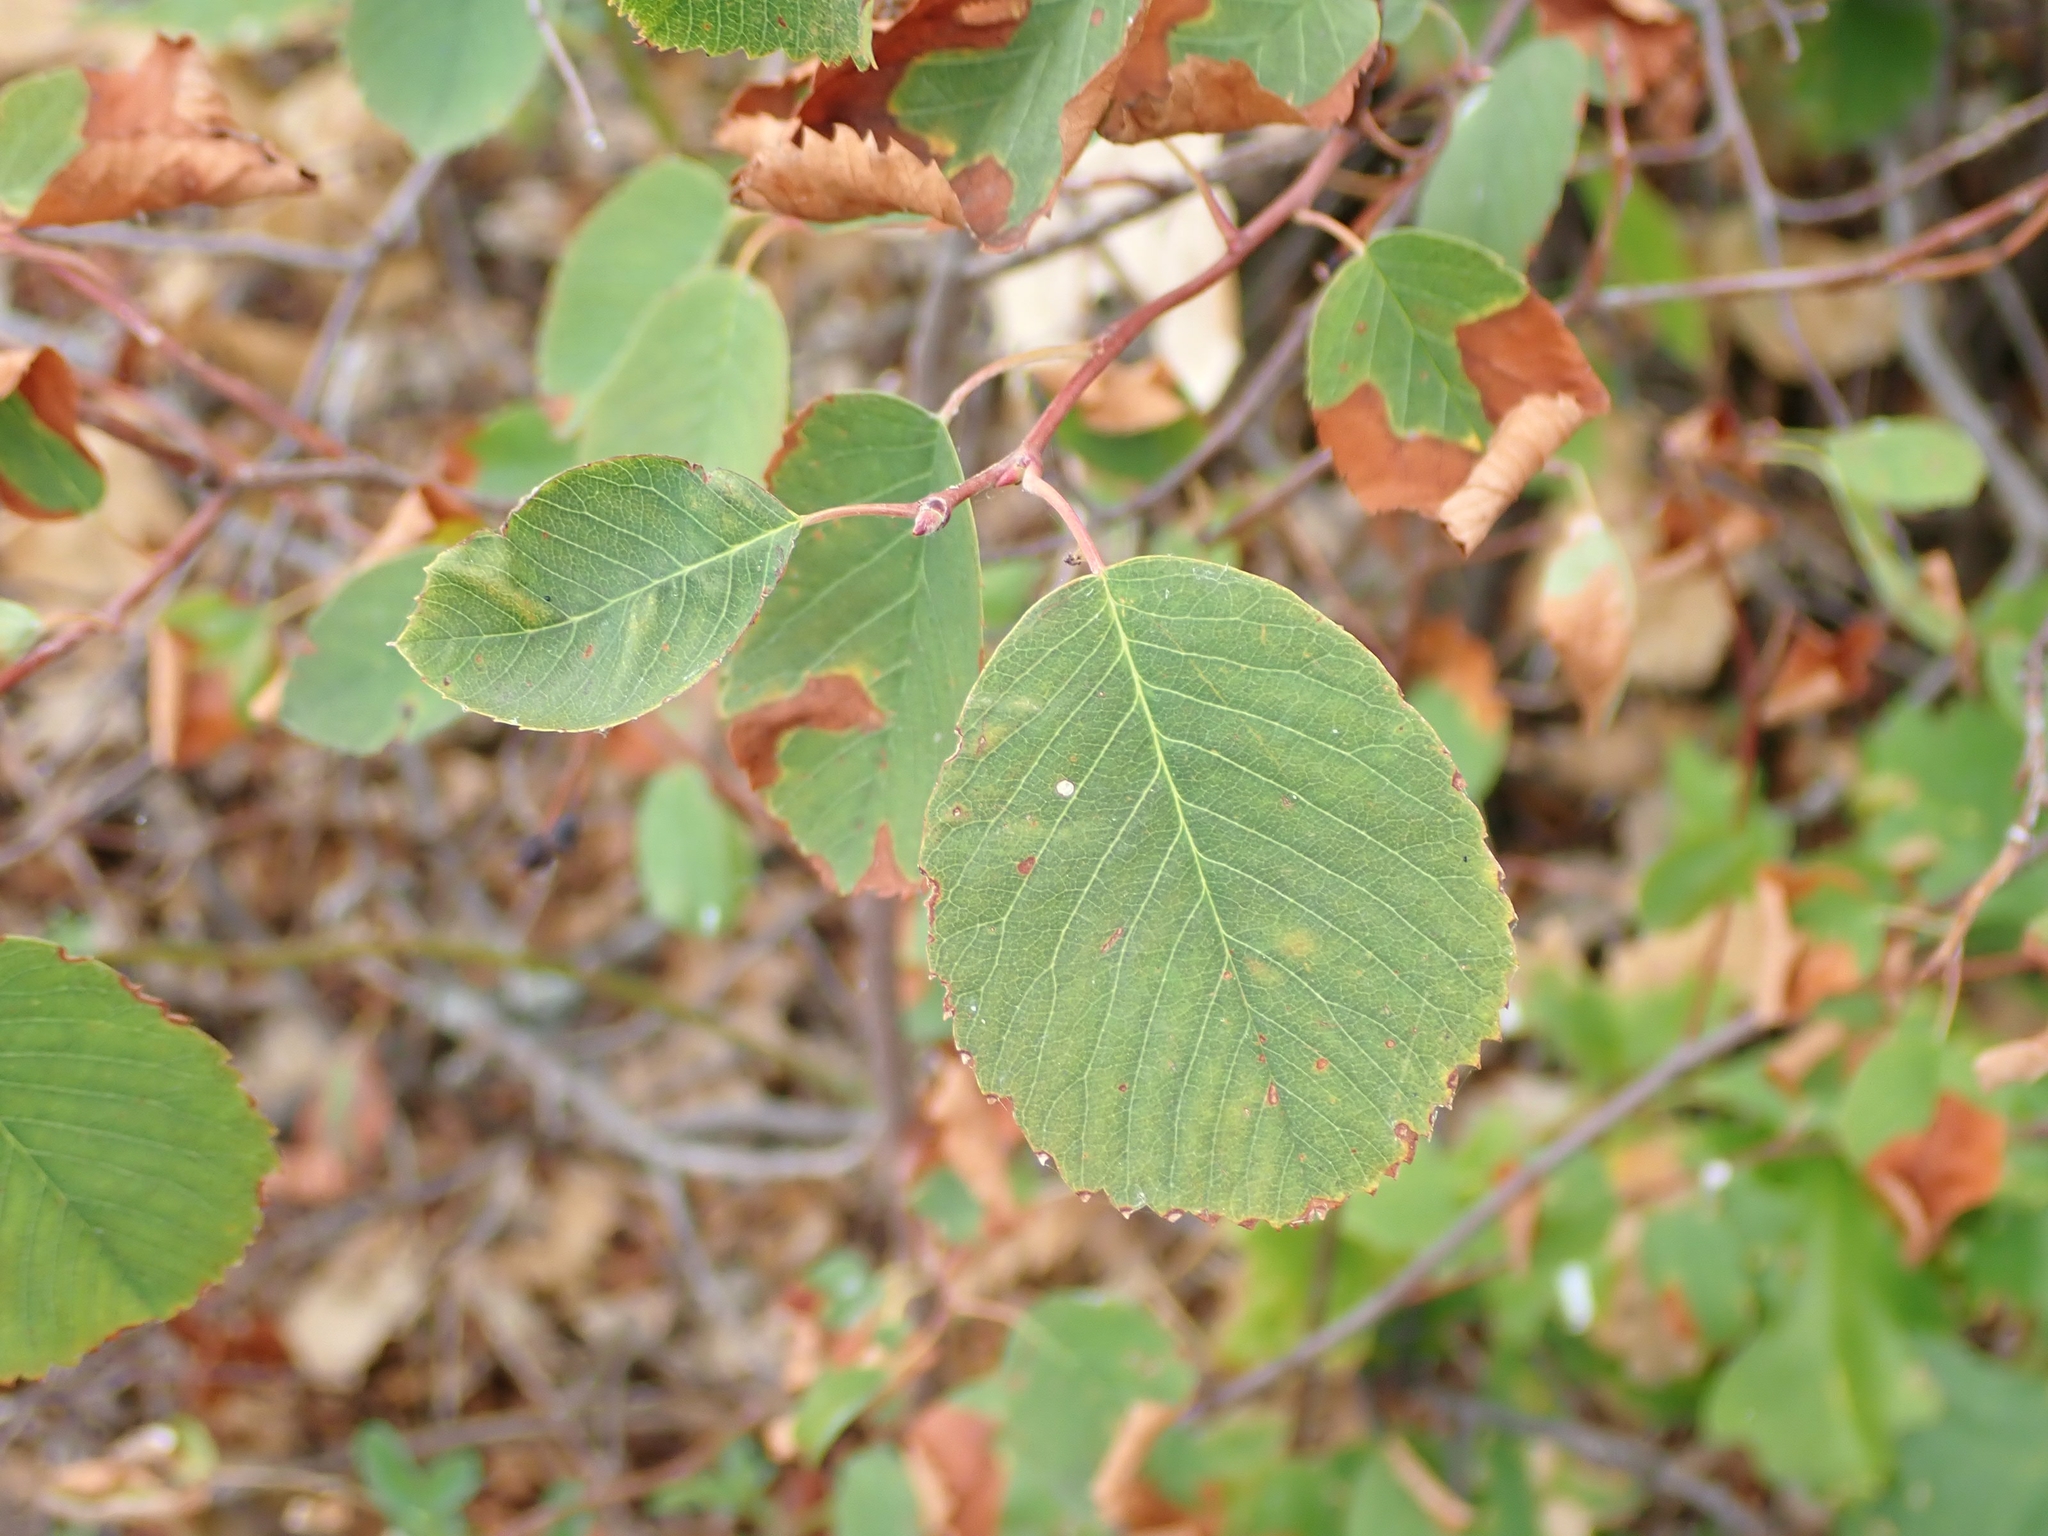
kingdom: Plantae
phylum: Tracheophyta
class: Magnoliopsida
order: Rosales
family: Rosaceae
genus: Amelanchier
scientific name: Amelanchier alnifolia
